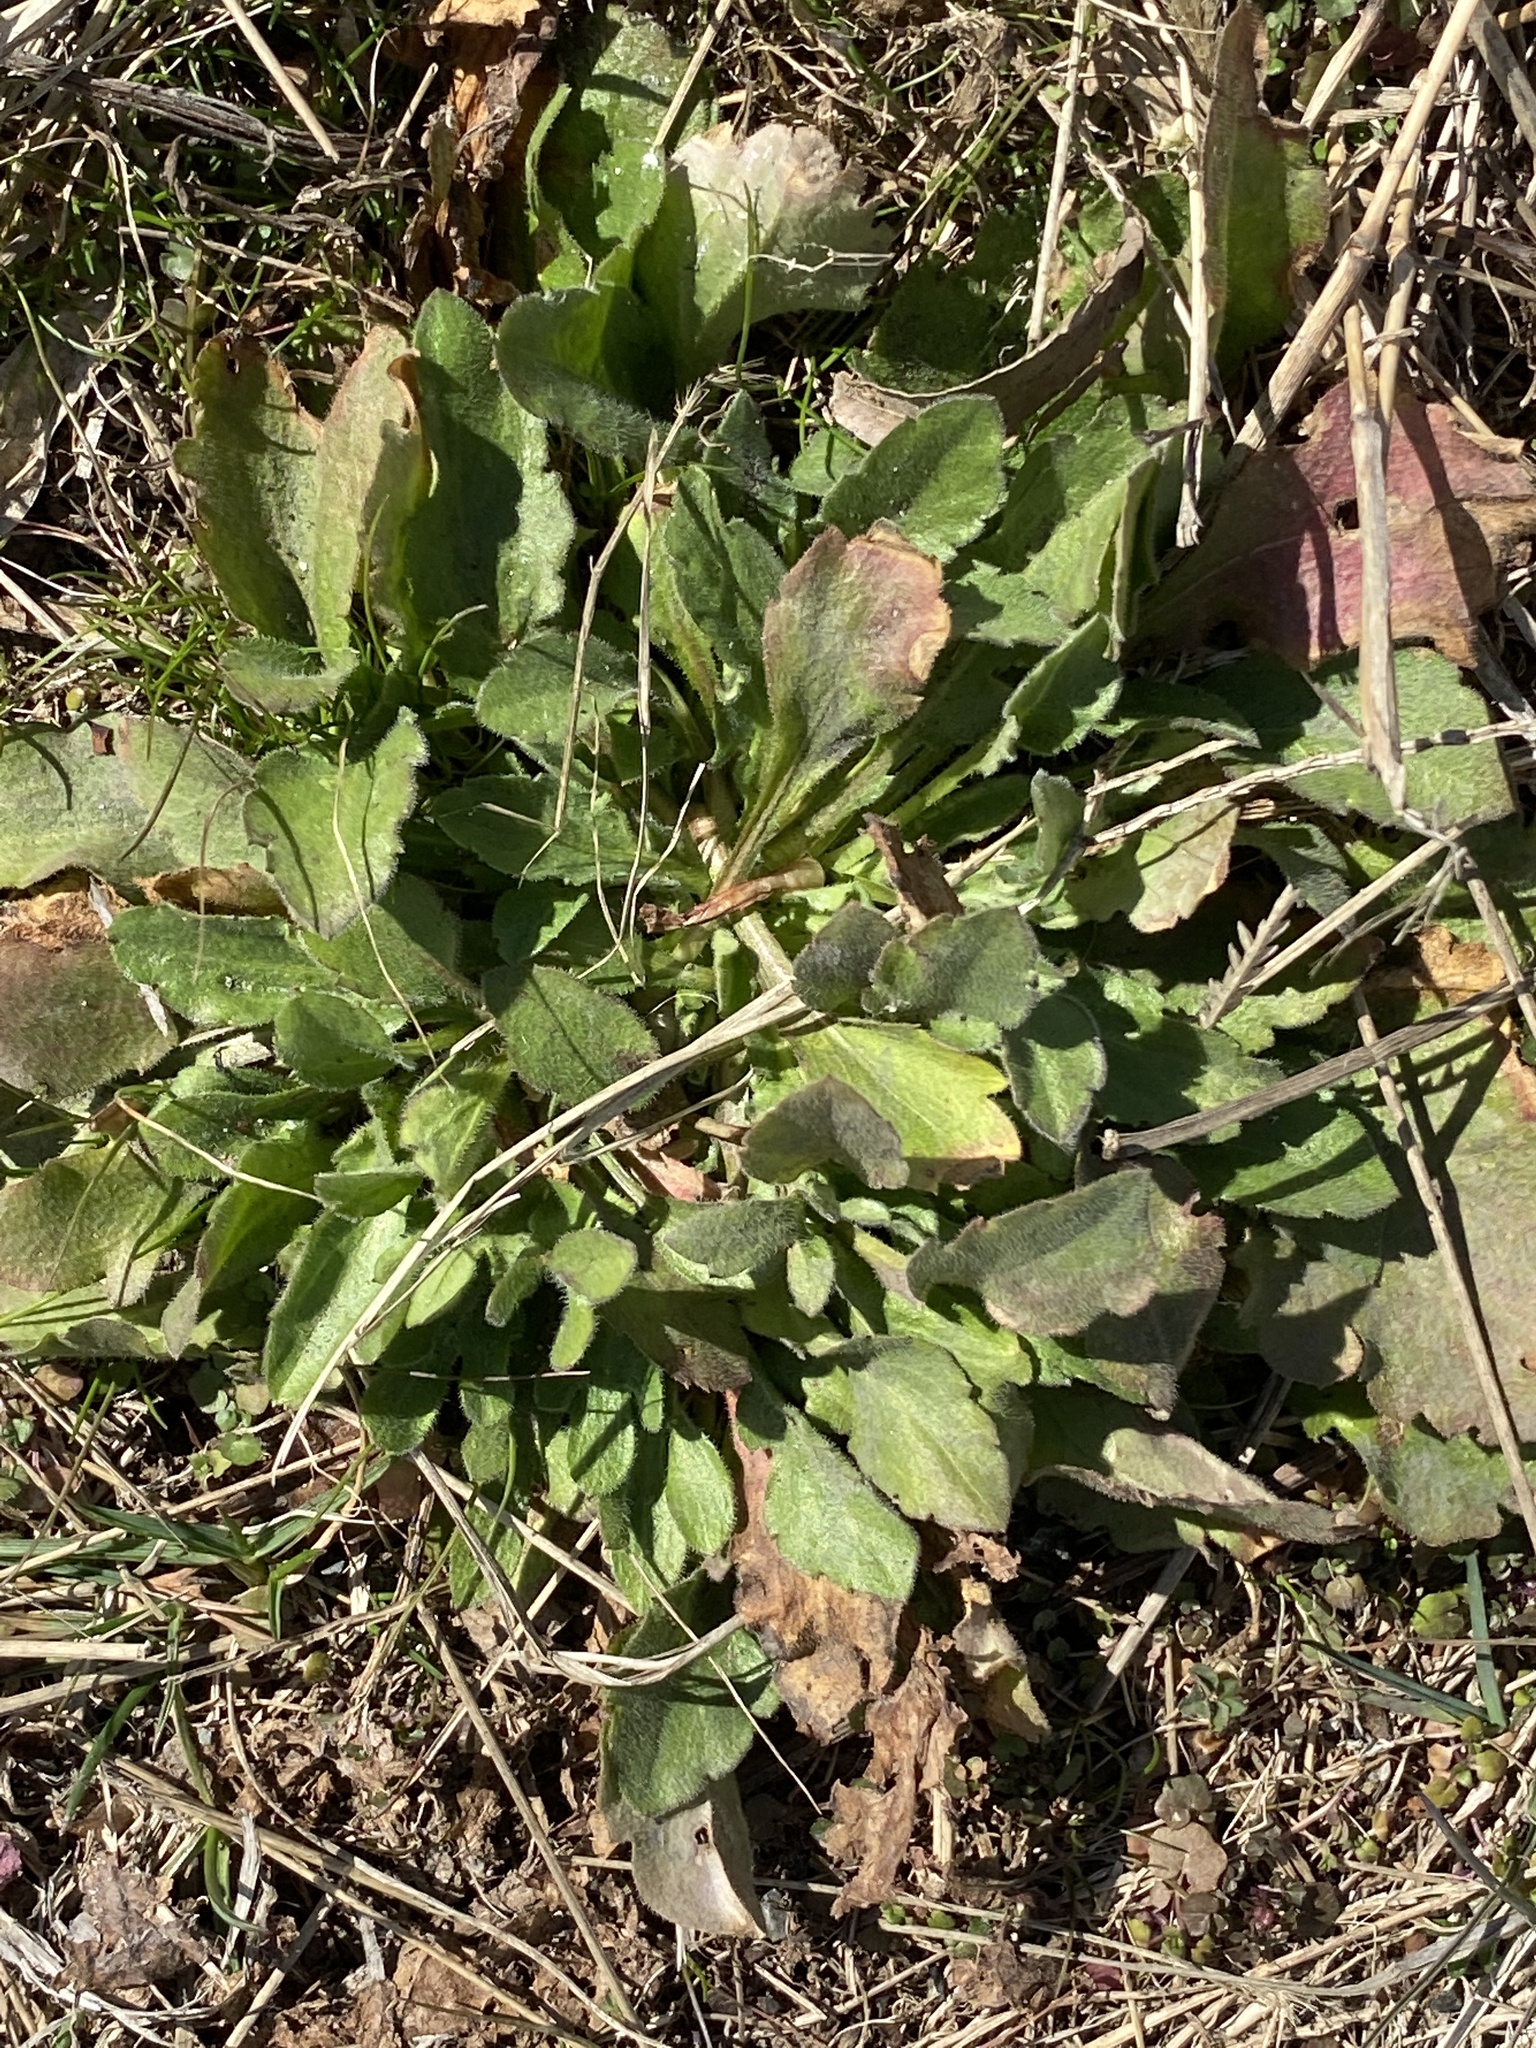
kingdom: Plantae
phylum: Tracheophyta
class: Magnoliopsida
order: Asterales
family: Asteraceae
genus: Erigeron
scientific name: Erigeron canadensis
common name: Canadian fleabane
